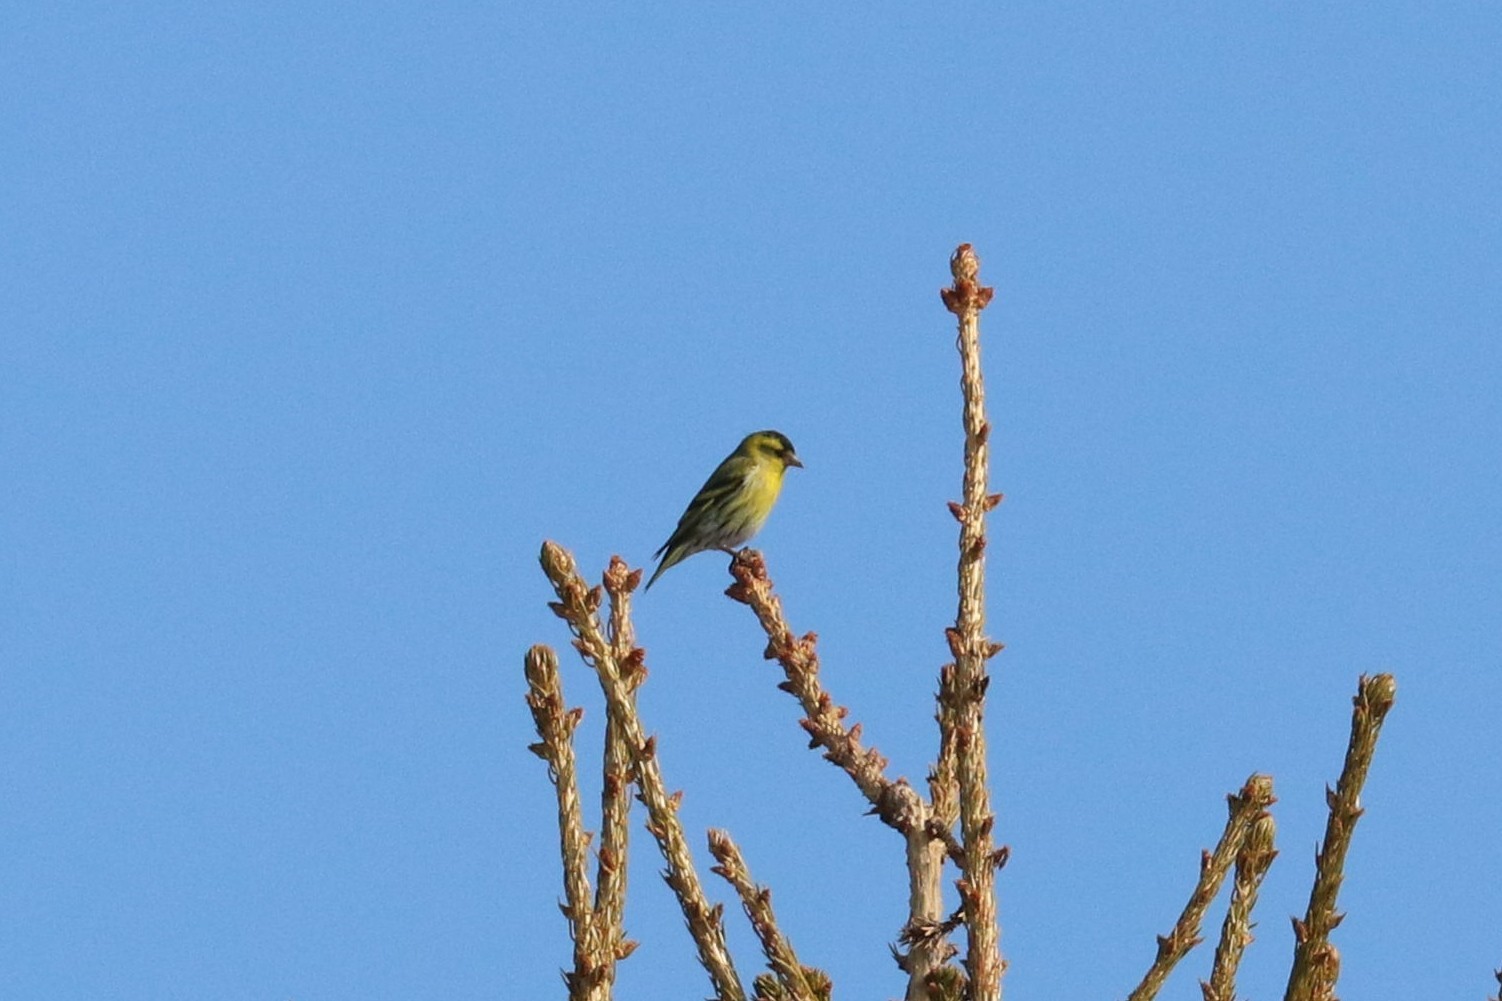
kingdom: Animalia
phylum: Chordata
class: Aves
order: Passeriformes
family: Fringillidae
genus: Spinus
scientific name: Spinus spinus
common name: Eurasian siskin
